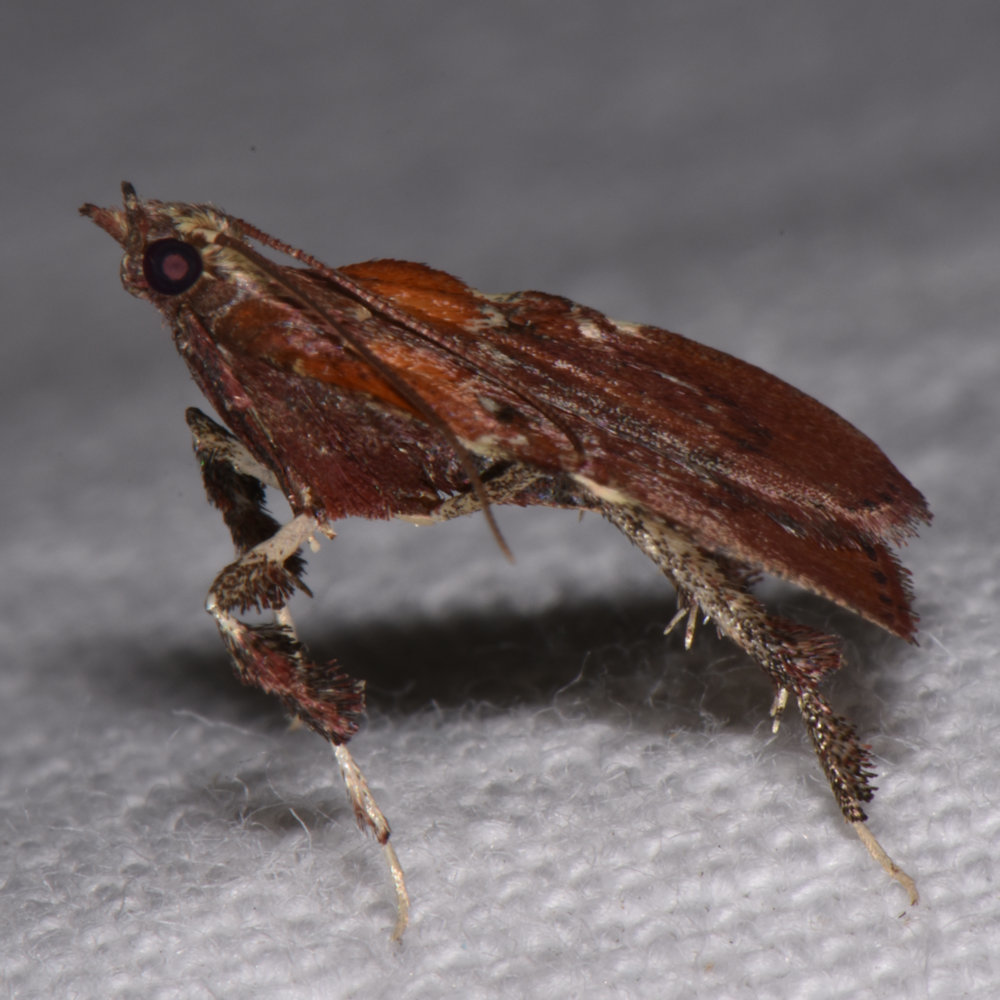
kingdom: Animalia
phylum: Arthropoda
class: Insecta
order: Lepidoptera
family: Pyralidae
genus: Galasa
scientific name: Galasa nigrinodis
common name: Boxwood leaftier moth
